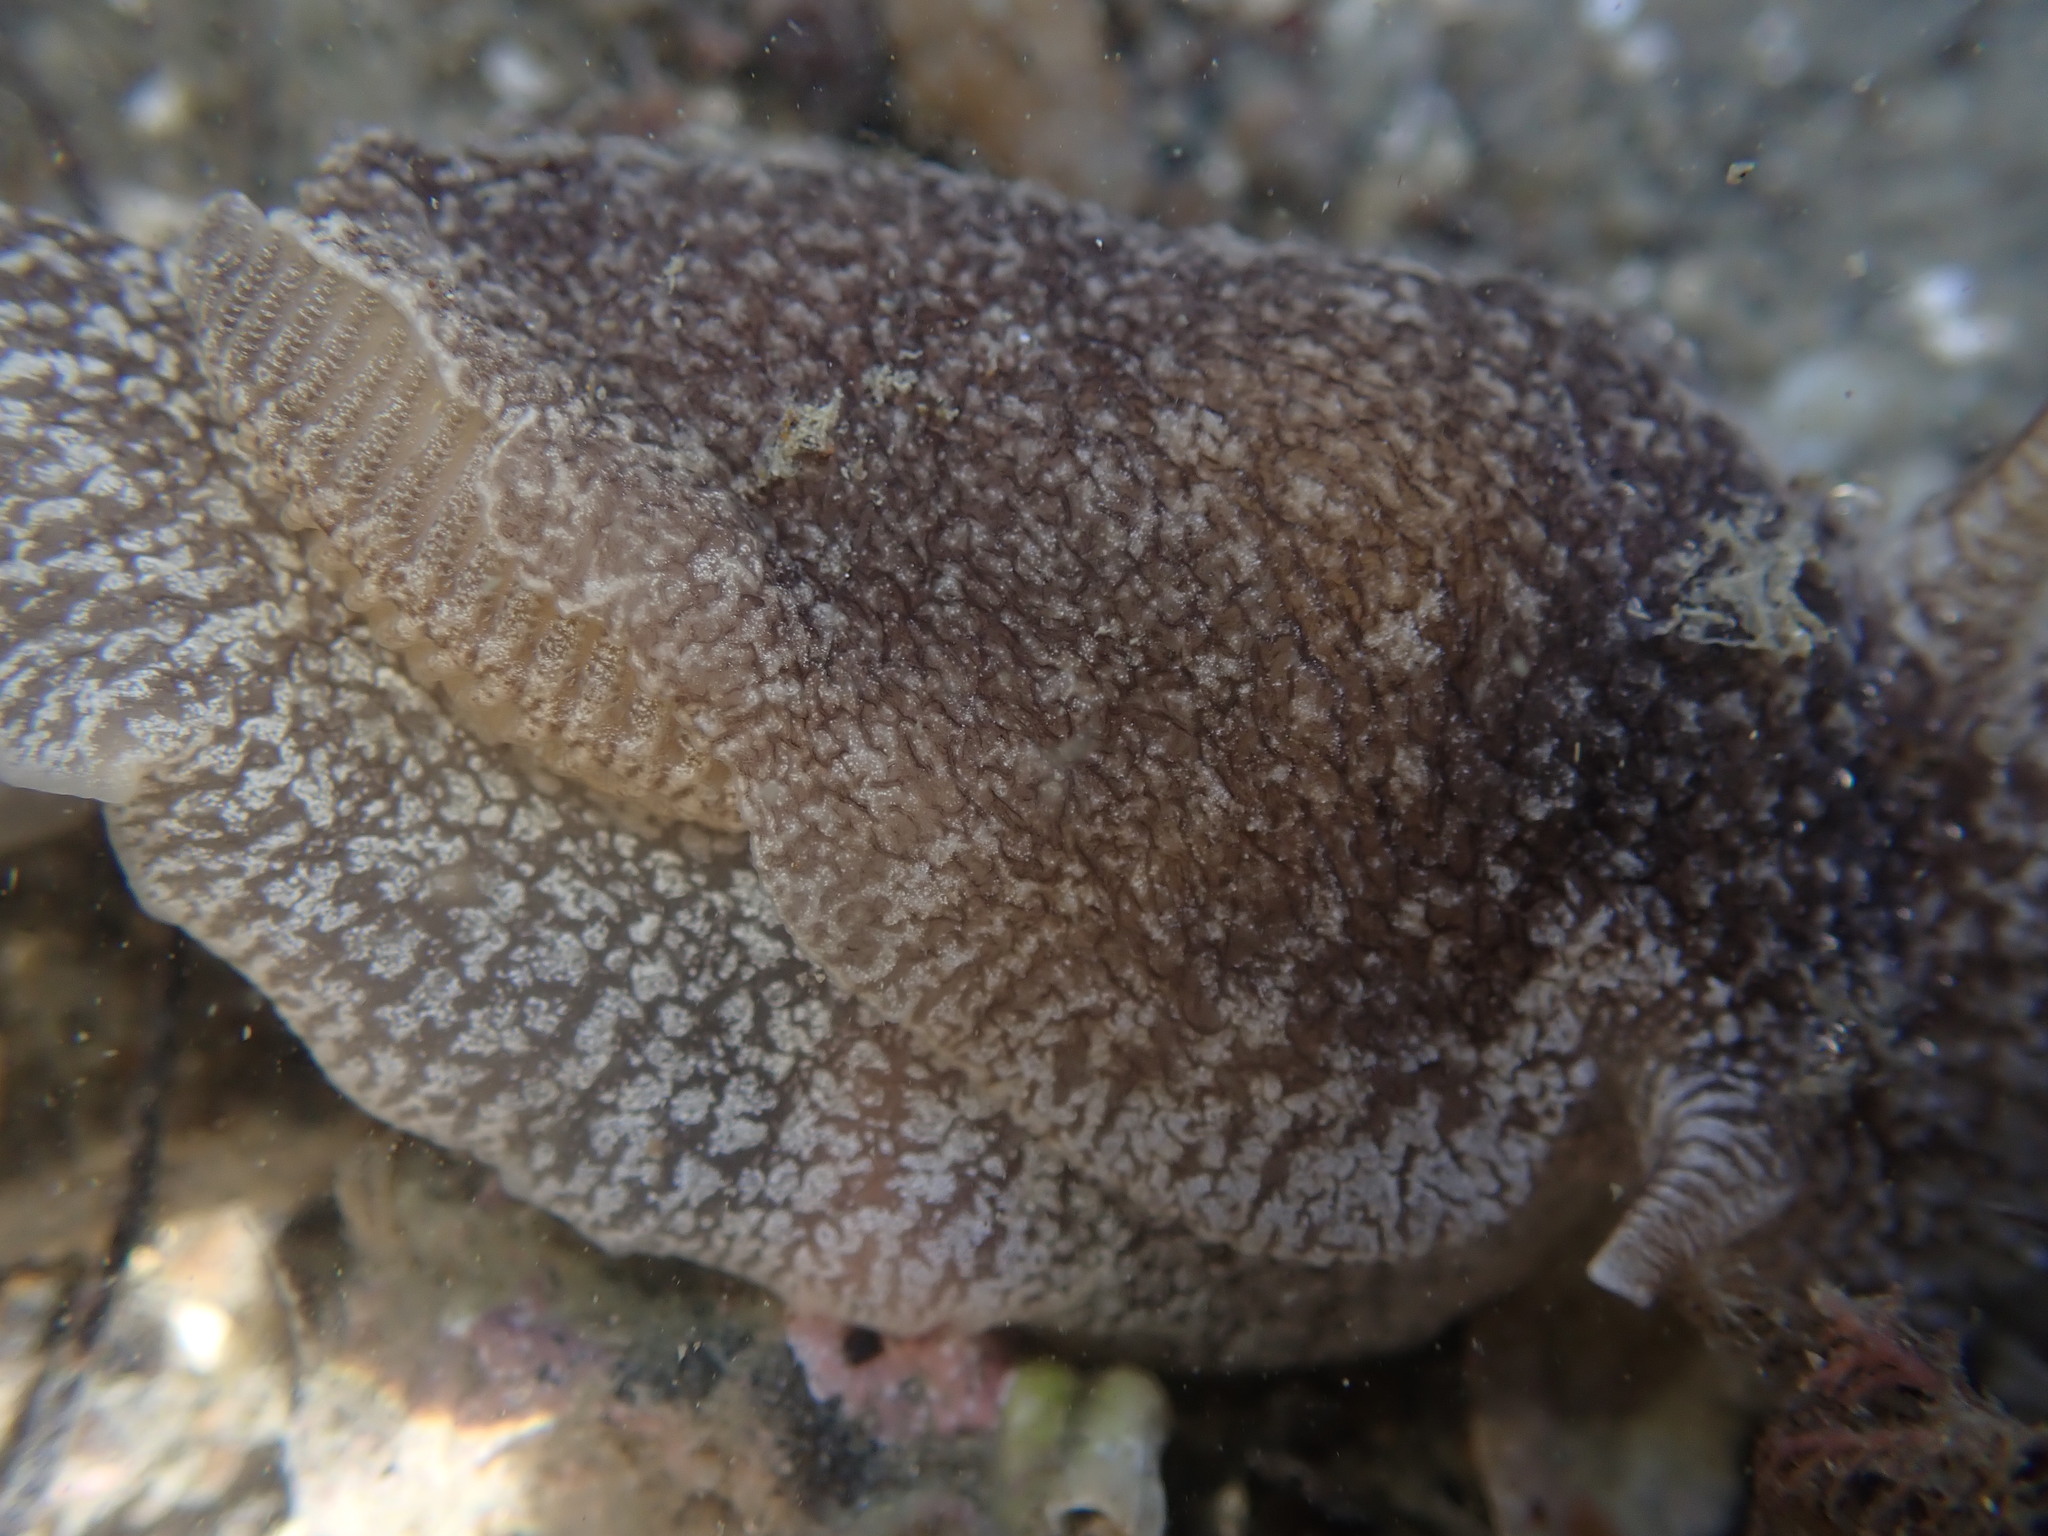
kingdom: Animalia
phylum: Mollusca
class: Gastropoda
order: Pleurobranchida
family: Pleurobranchaeidae
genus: Pleurobranchaea
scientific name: Pleurobranchaea maculata
